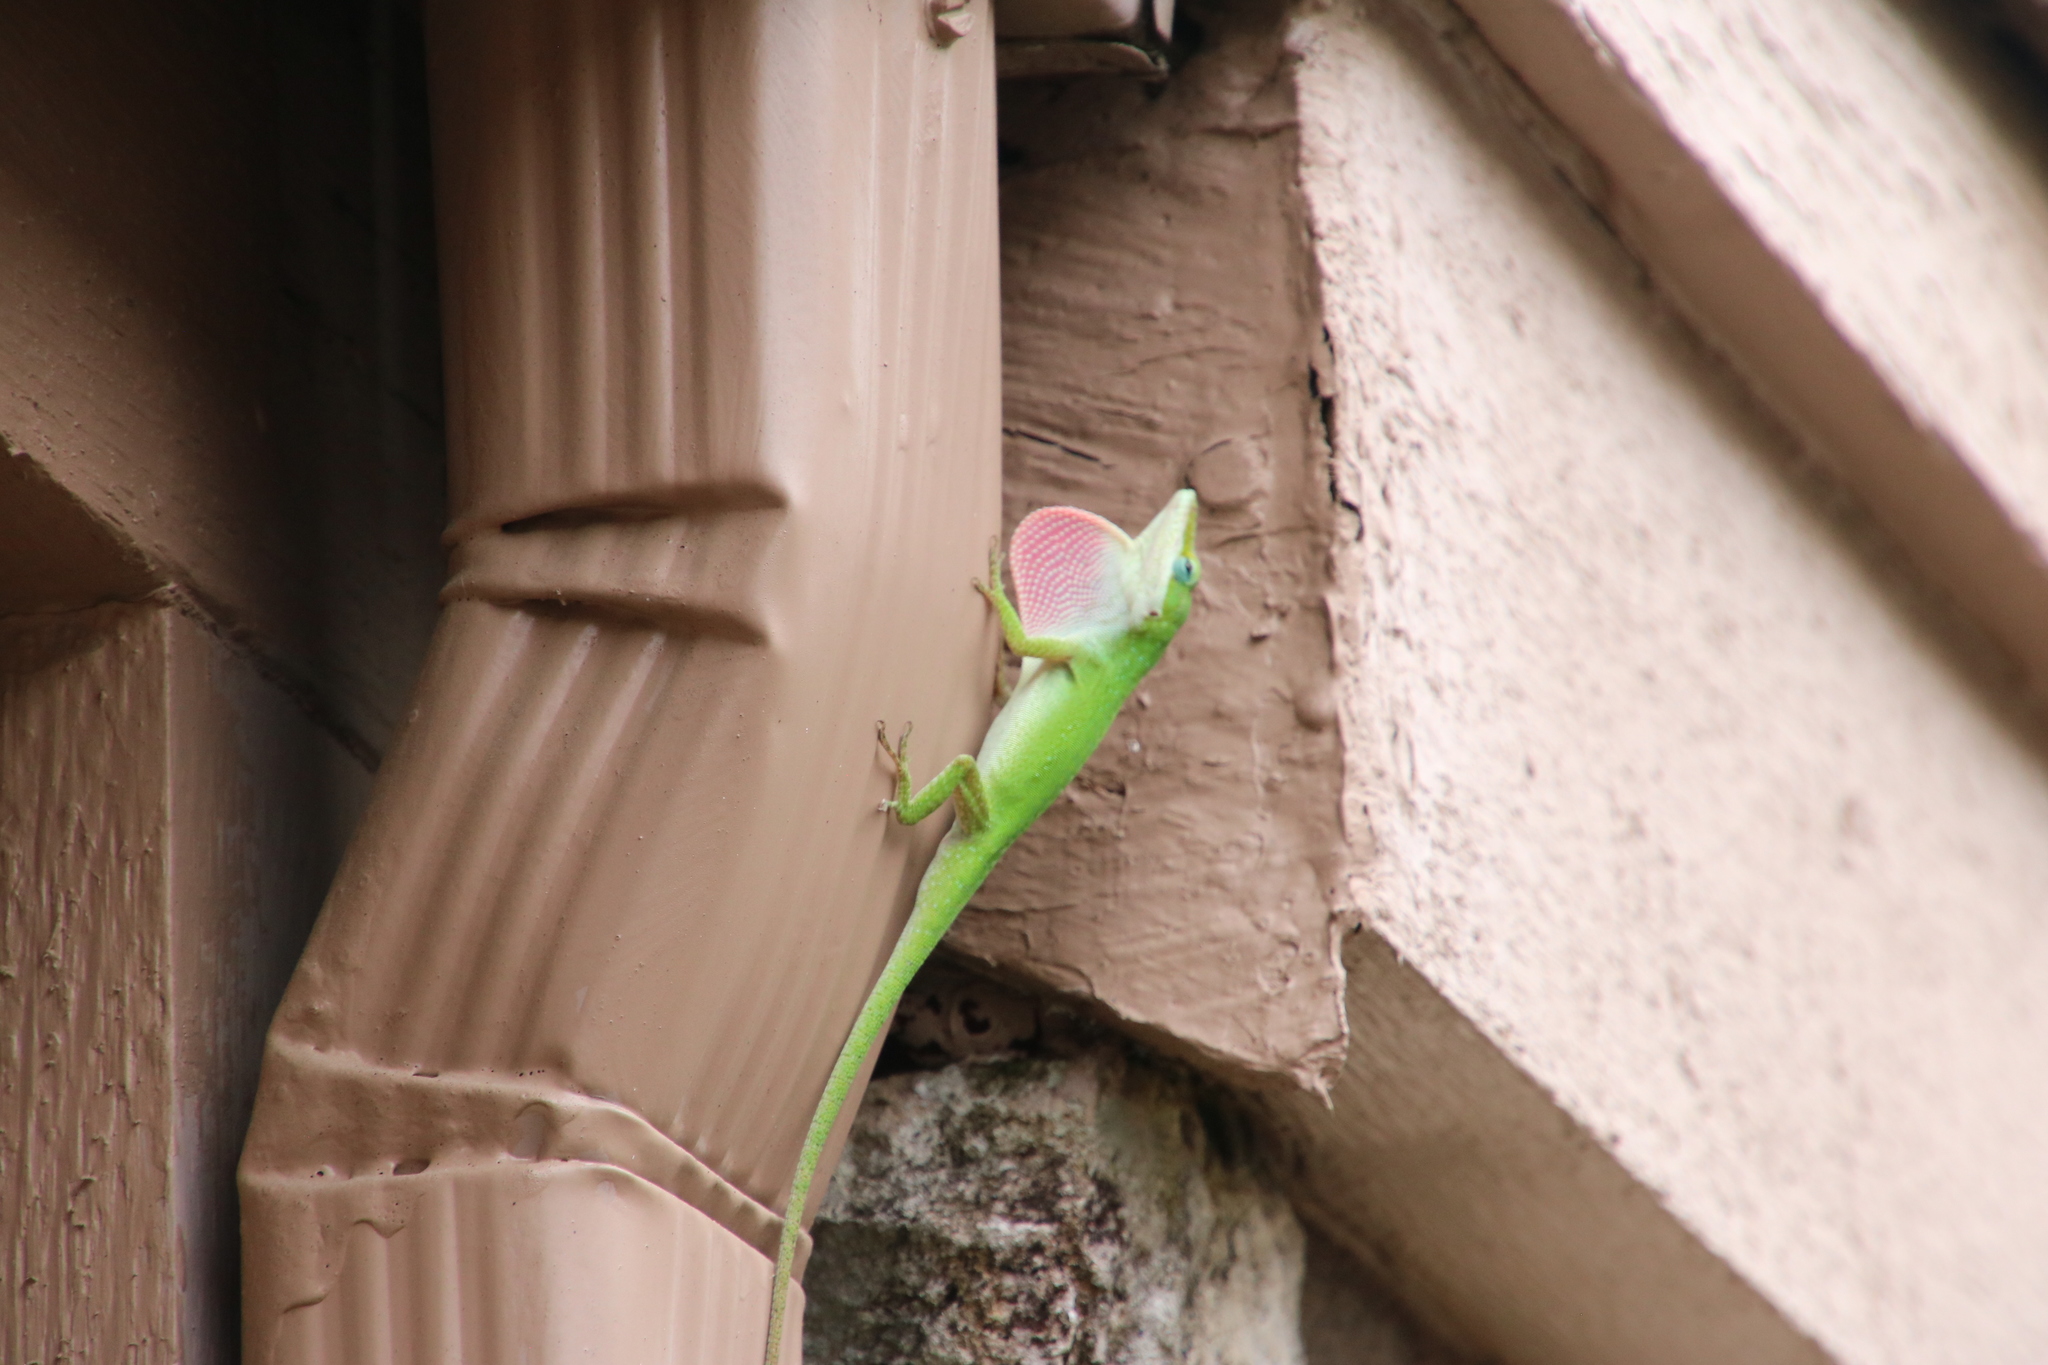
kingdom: Animalia
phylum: Chordata
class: Squamata
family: Dactyloidae
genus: Anolis
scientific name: Anolis carolinensis
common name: Green anole
